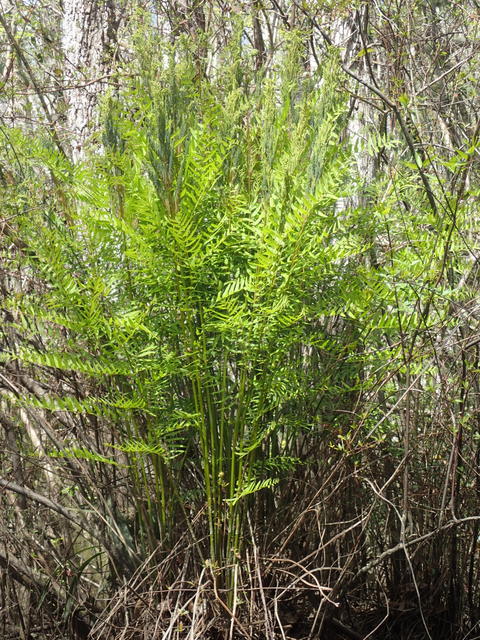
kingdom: Plantae
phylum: Tracheophyta
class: Polypodiopsida
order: Osmundales
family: Osmundaceae
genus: Osmunda
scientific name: Osmunda spectabilis
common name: American royal fern
